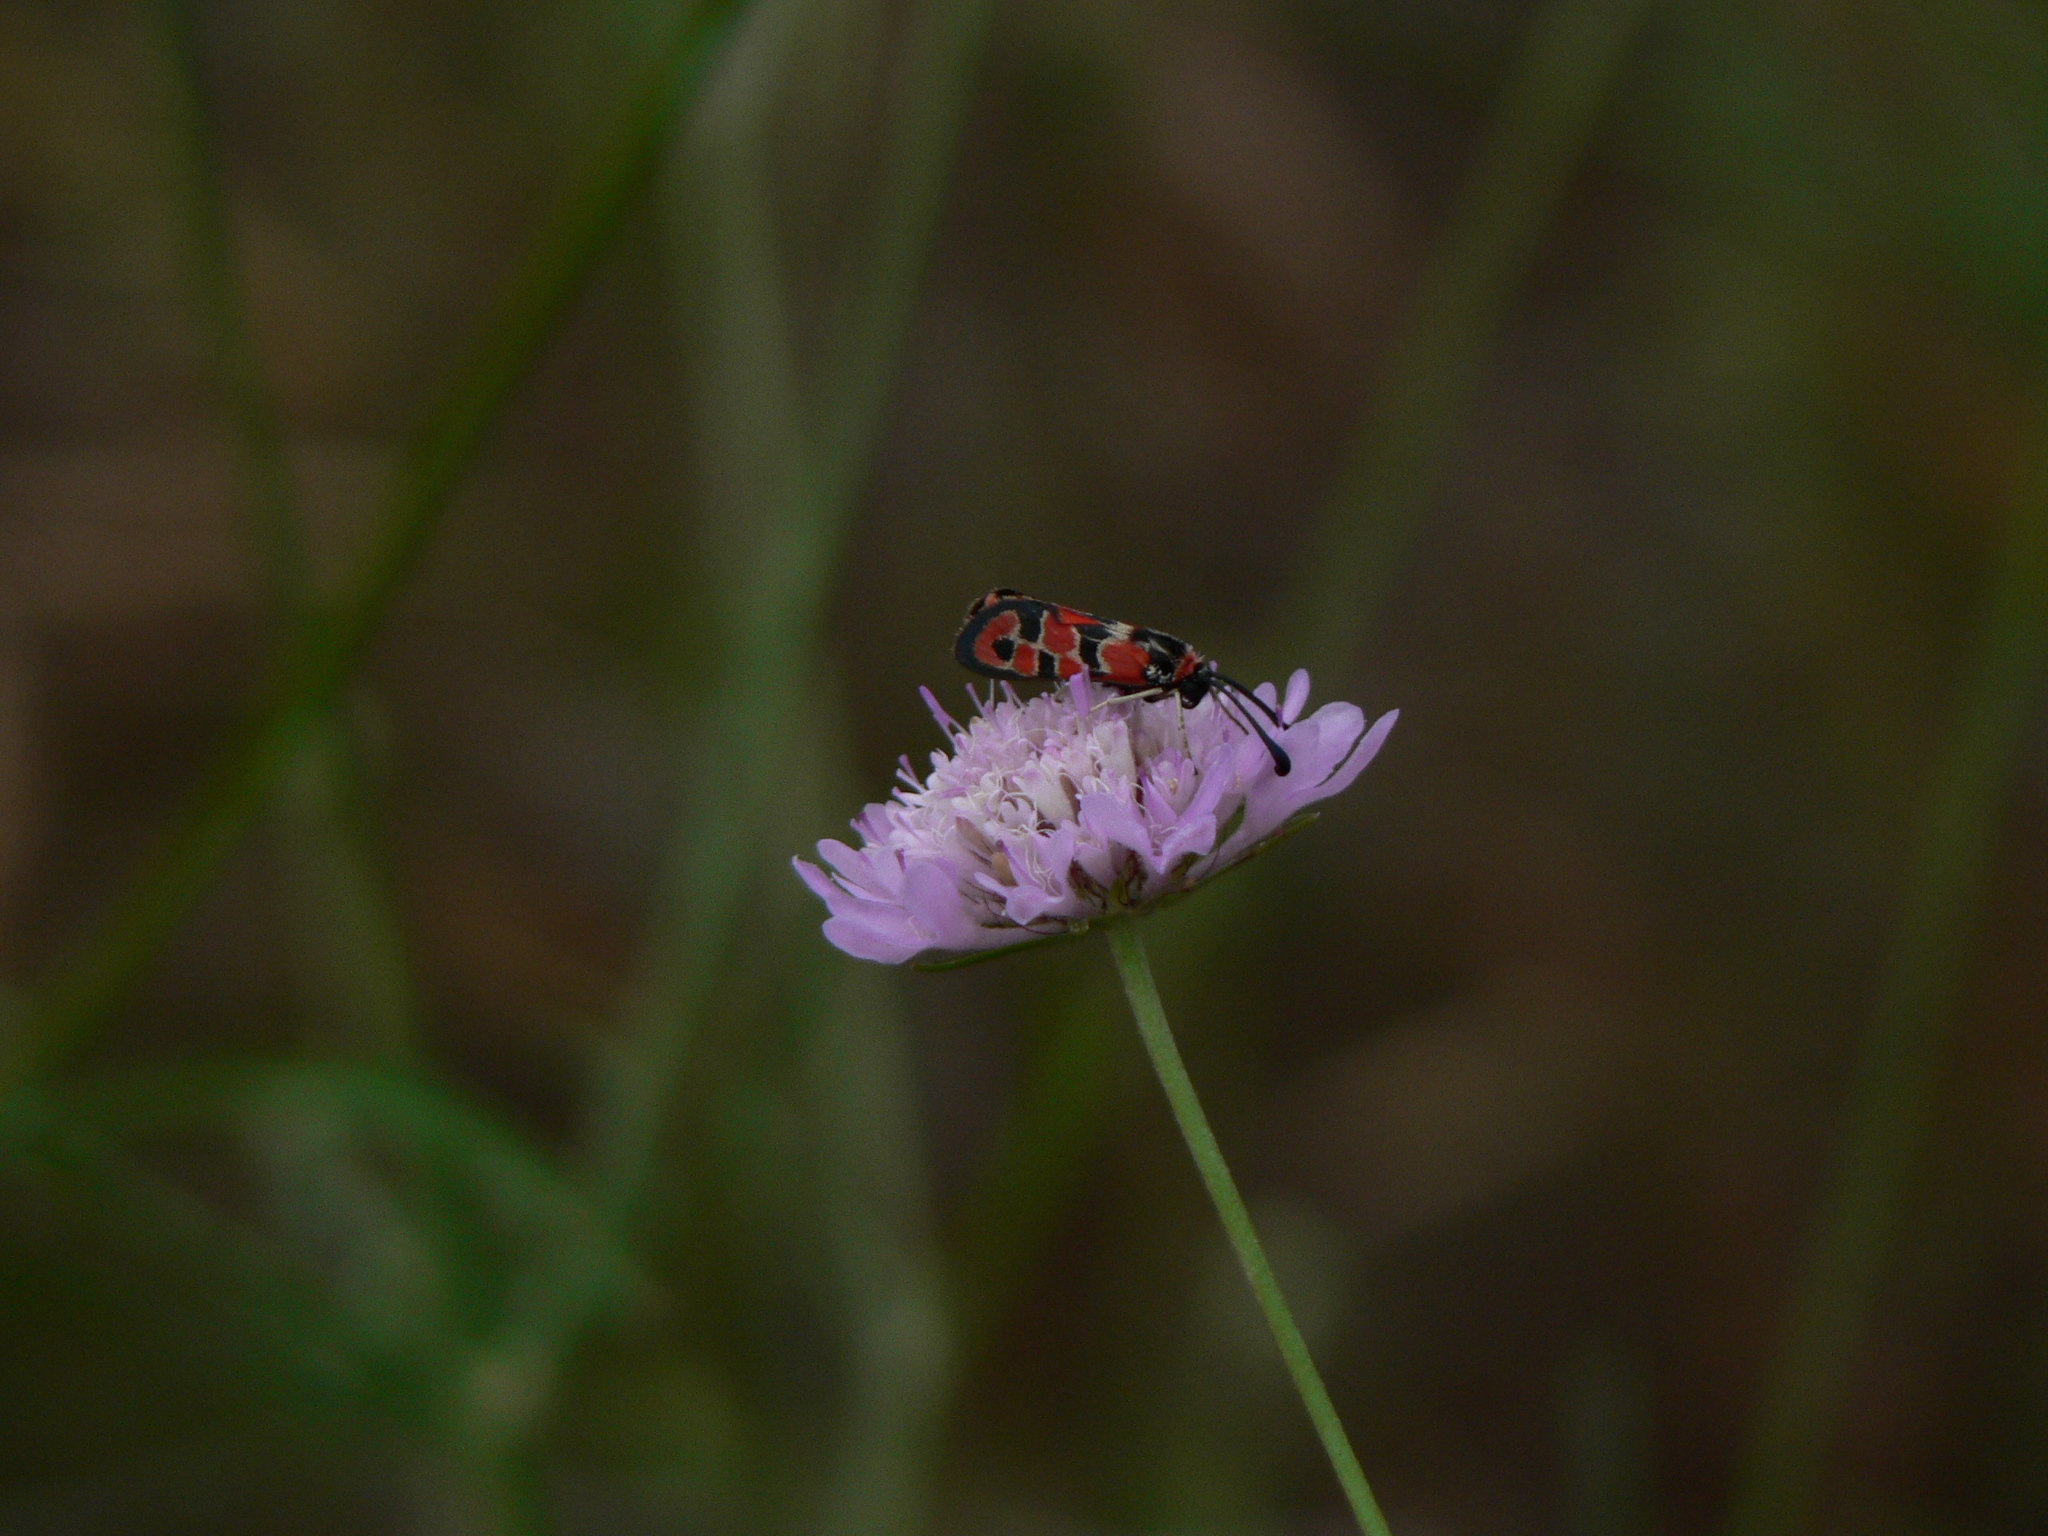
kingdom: Animalia
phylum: Arthropoda
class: Insecta
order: Lepidoptera
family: Zygaenidae
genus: Zygaena
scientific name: Zygaena fausta
